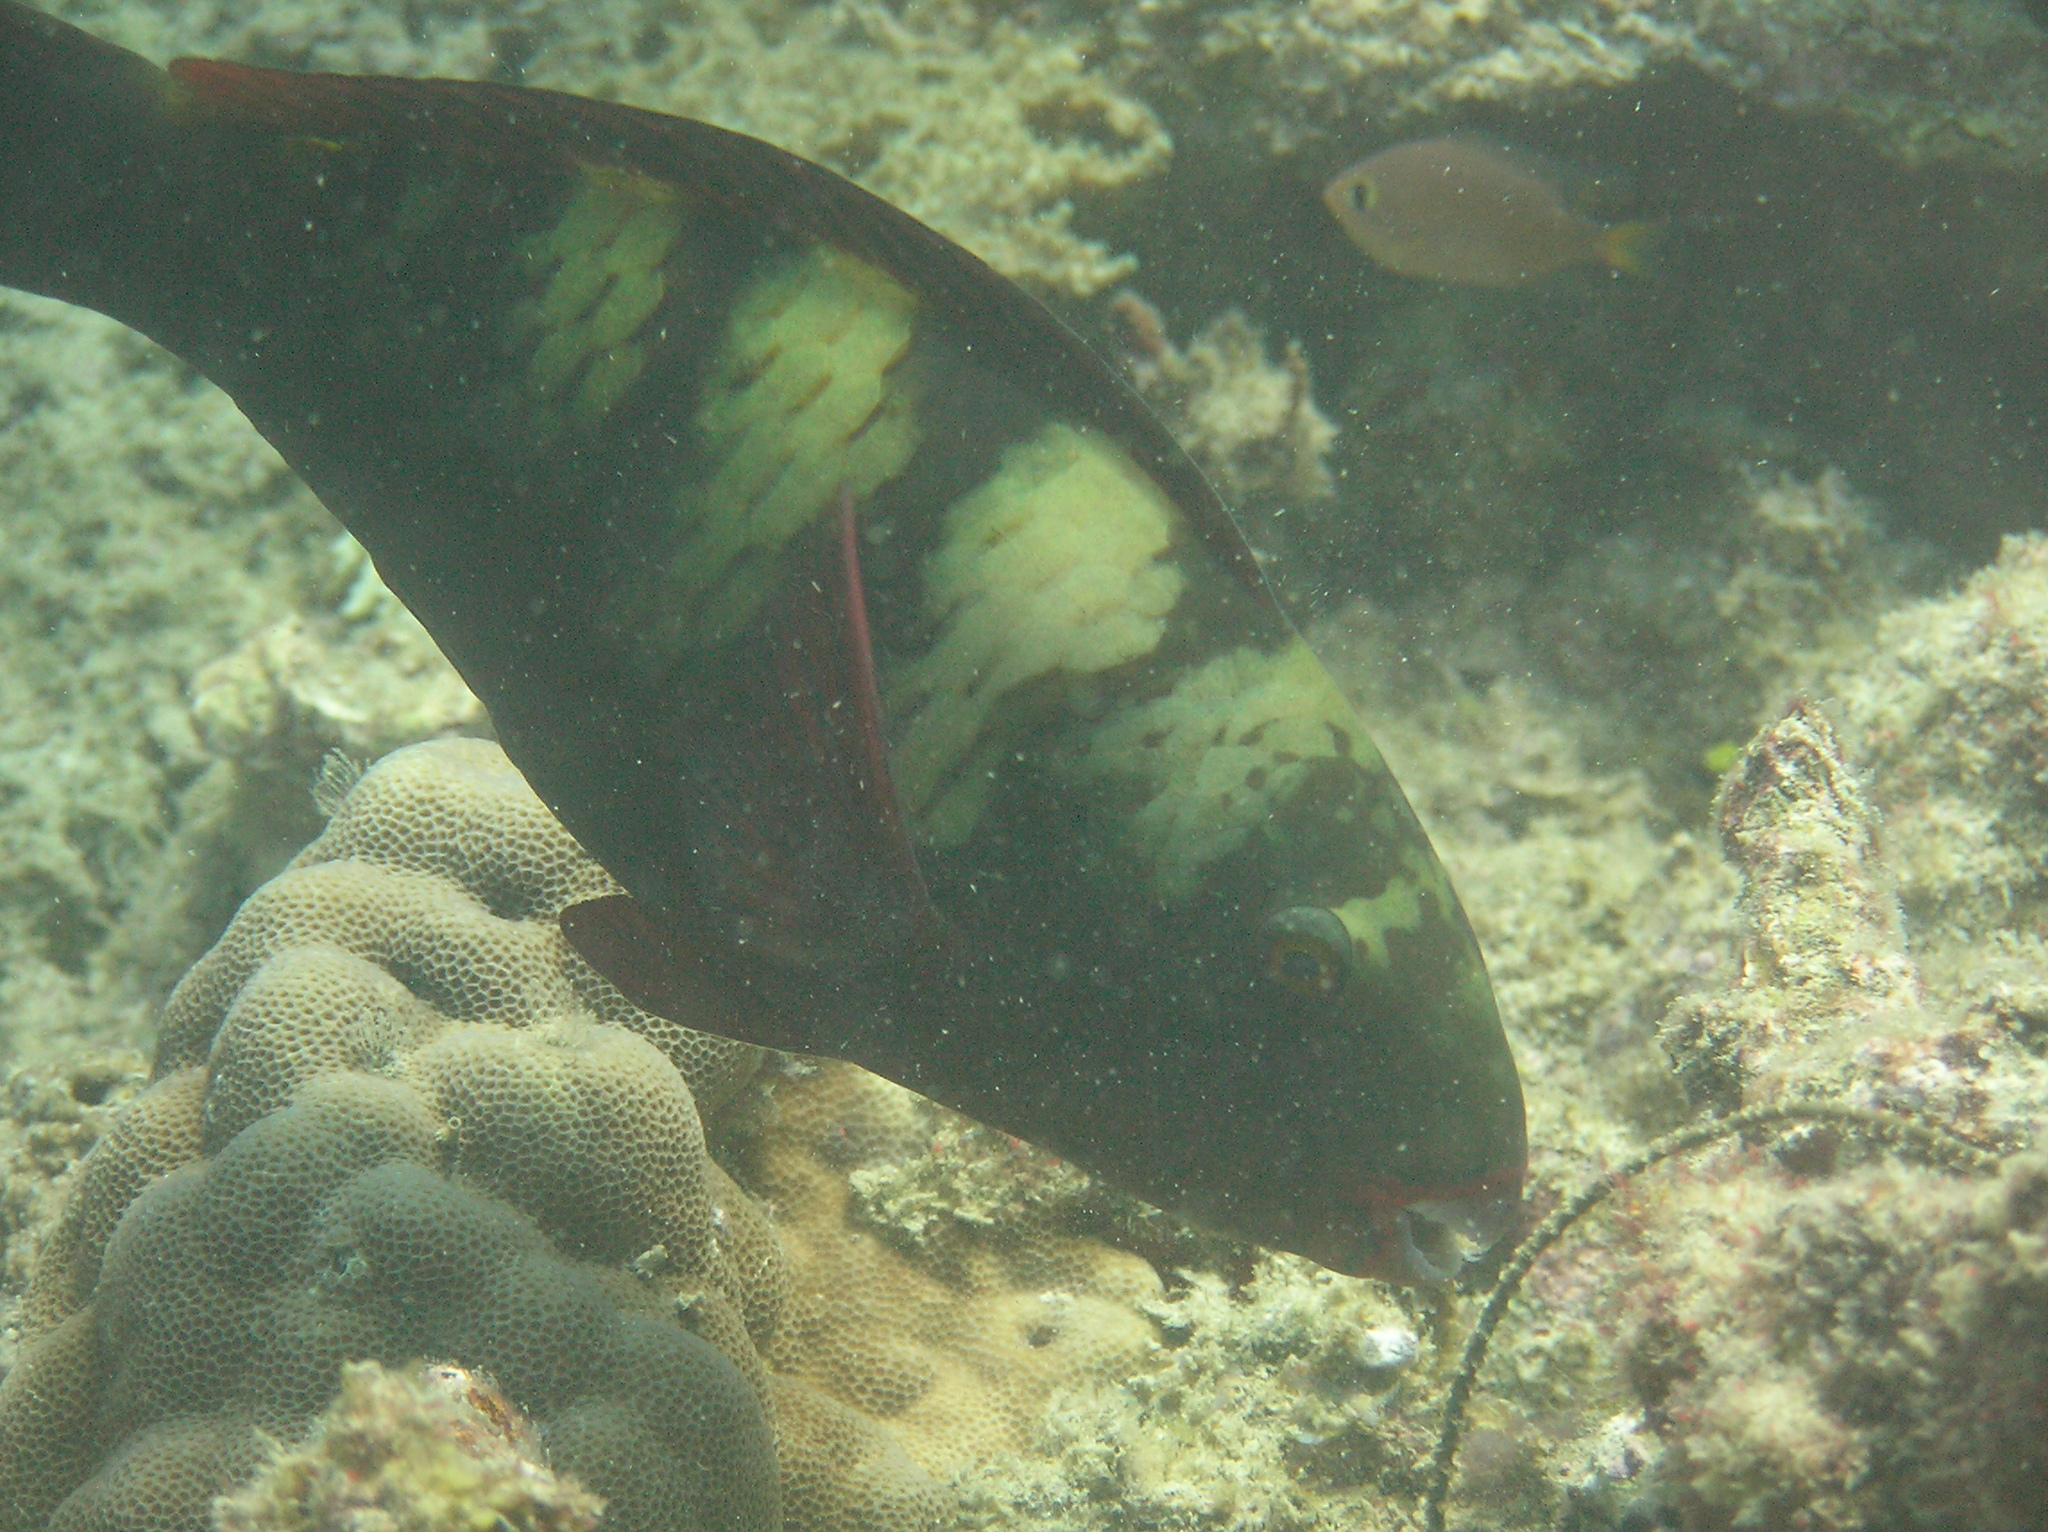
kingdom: Animalia
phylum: Chordata
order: Perciformes
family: Scaridae
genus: Chlorurus
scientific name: Chlorurus bleekeri
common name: Bleeker's parrotfish
